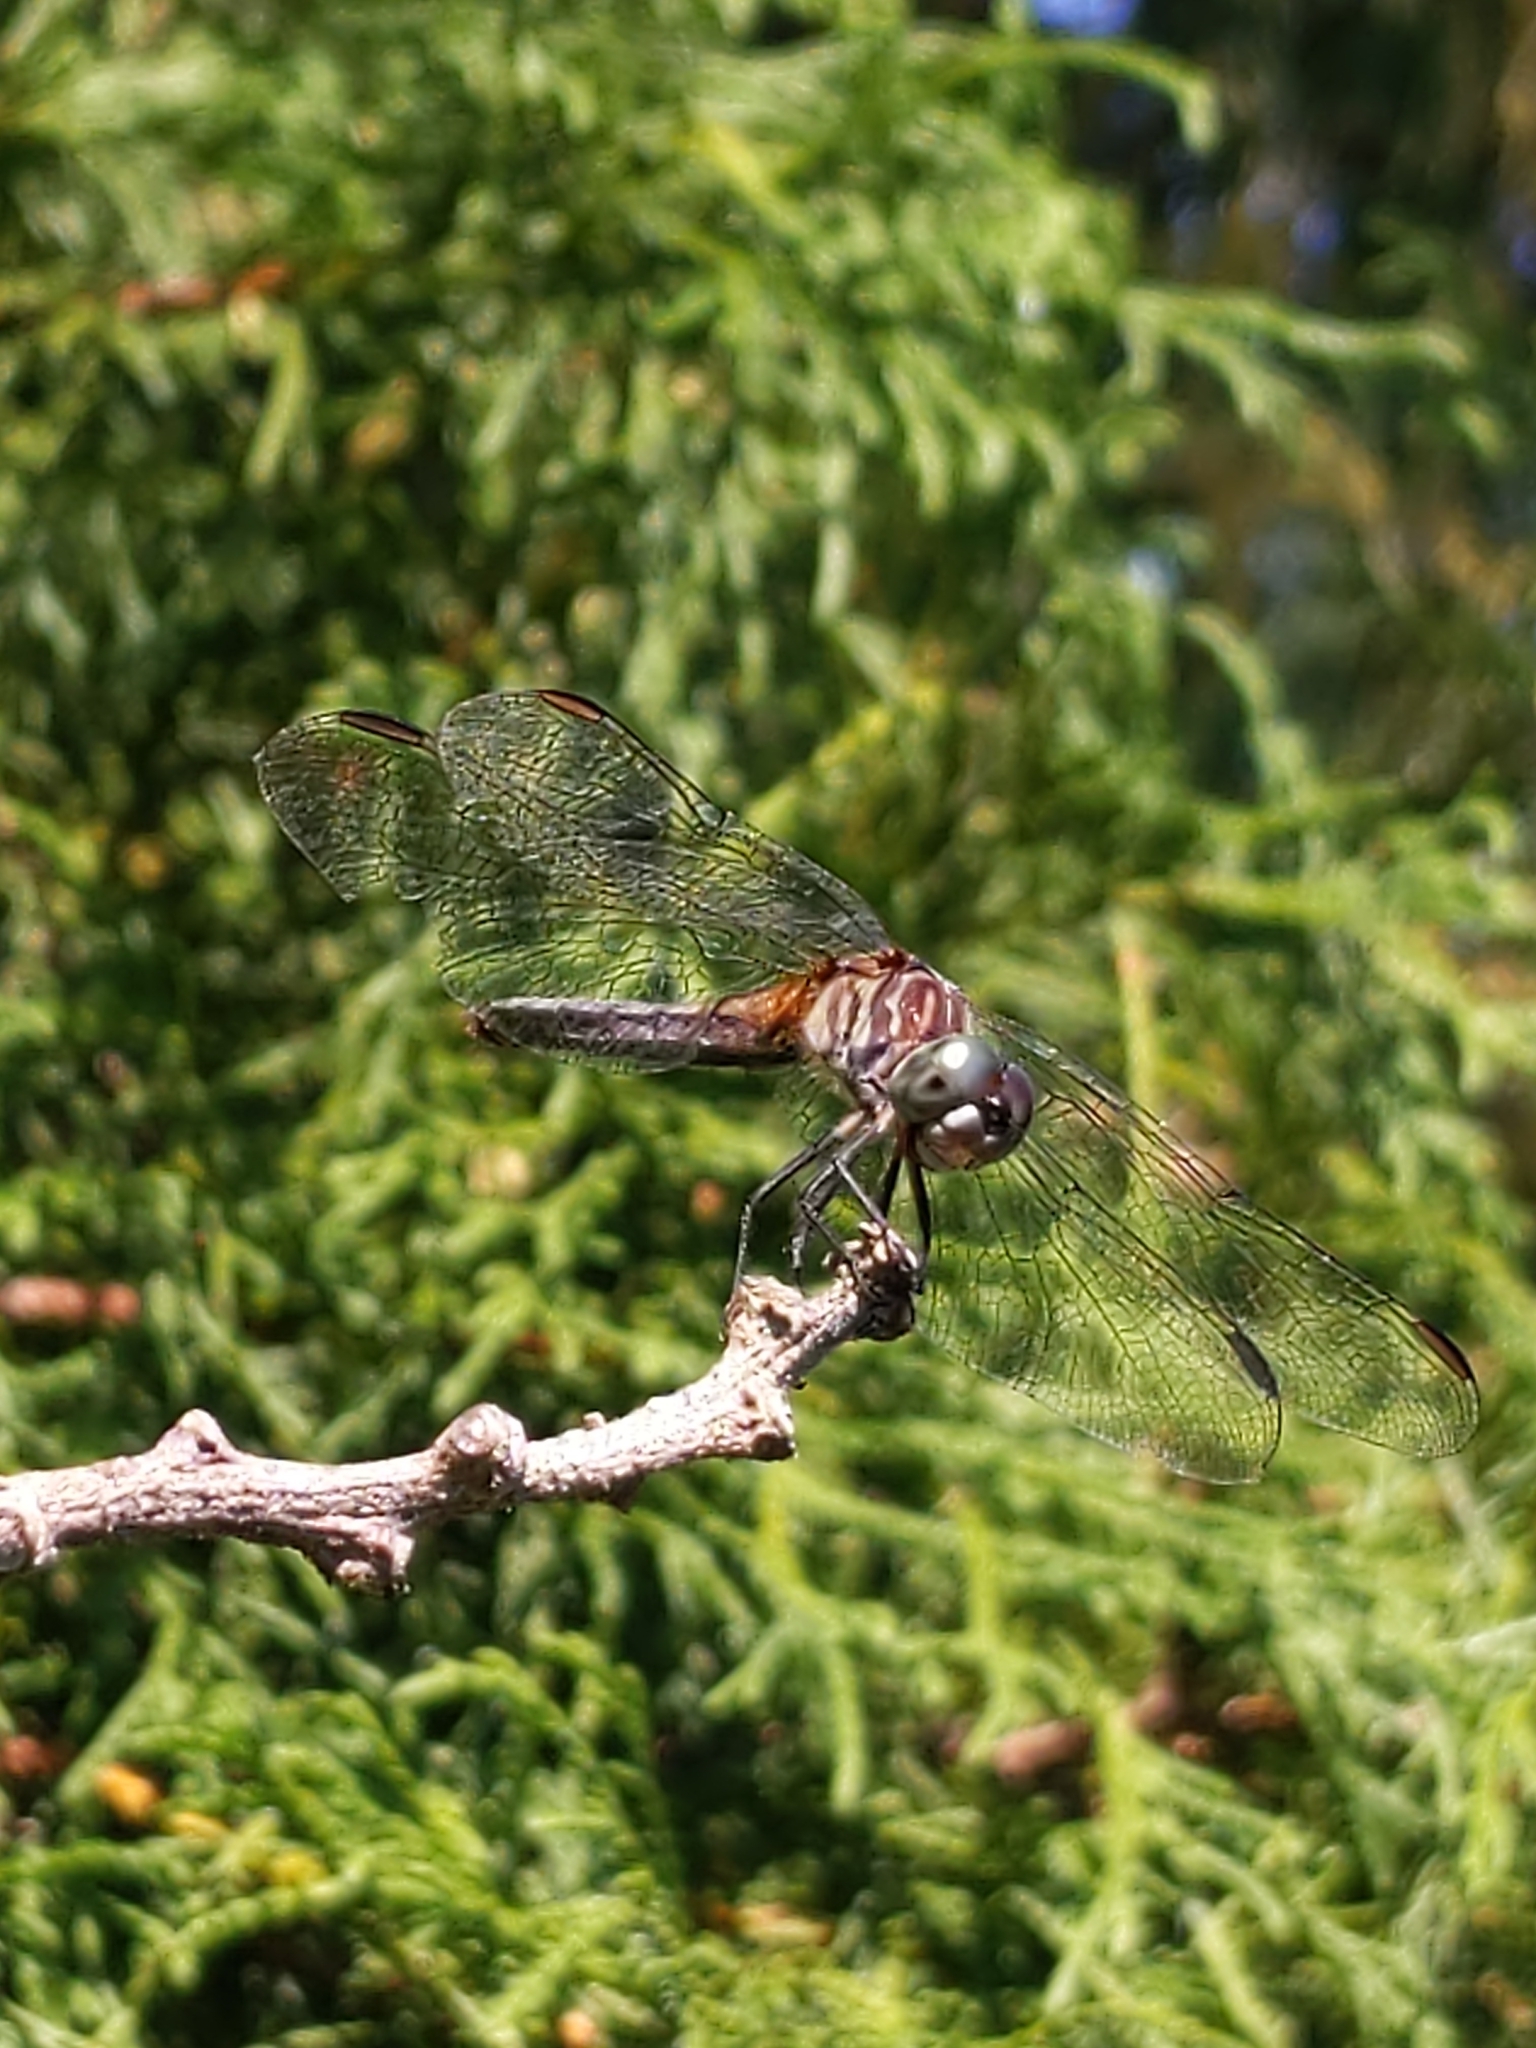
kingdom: Animalia
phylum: Arthropoda
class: Insecta
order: Odonata
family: Libellulidae
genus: Pachydiplax
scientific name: Pachydiplax longipennis
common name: Blue dasher
